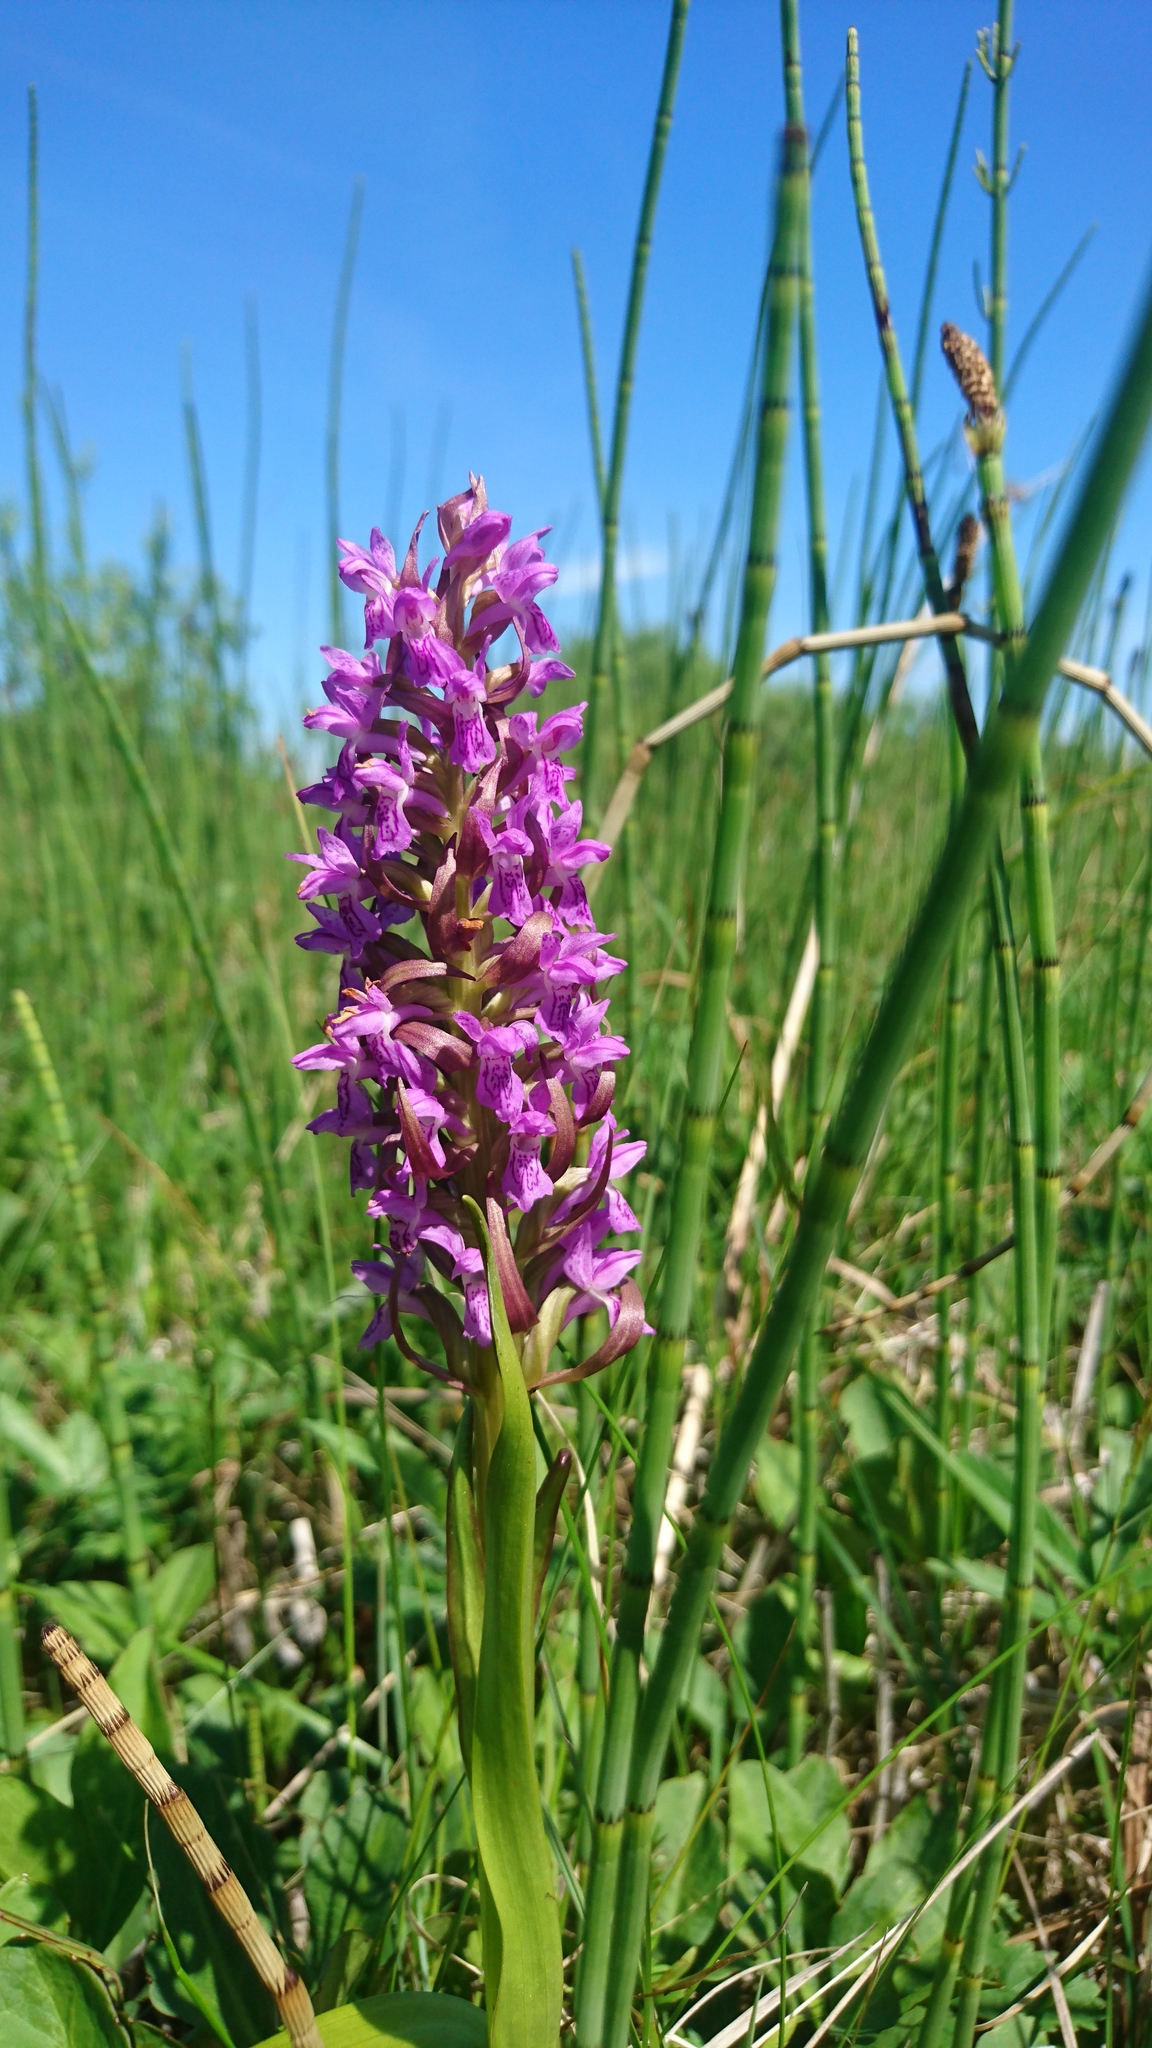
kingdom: Plantae
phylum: Tracheophyta
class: Liliopsida
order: Asparagales
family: Orchidaceae
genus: Dactylorhiza
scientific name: Dactylorhiza incarnata
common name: Early marsh-orchid
